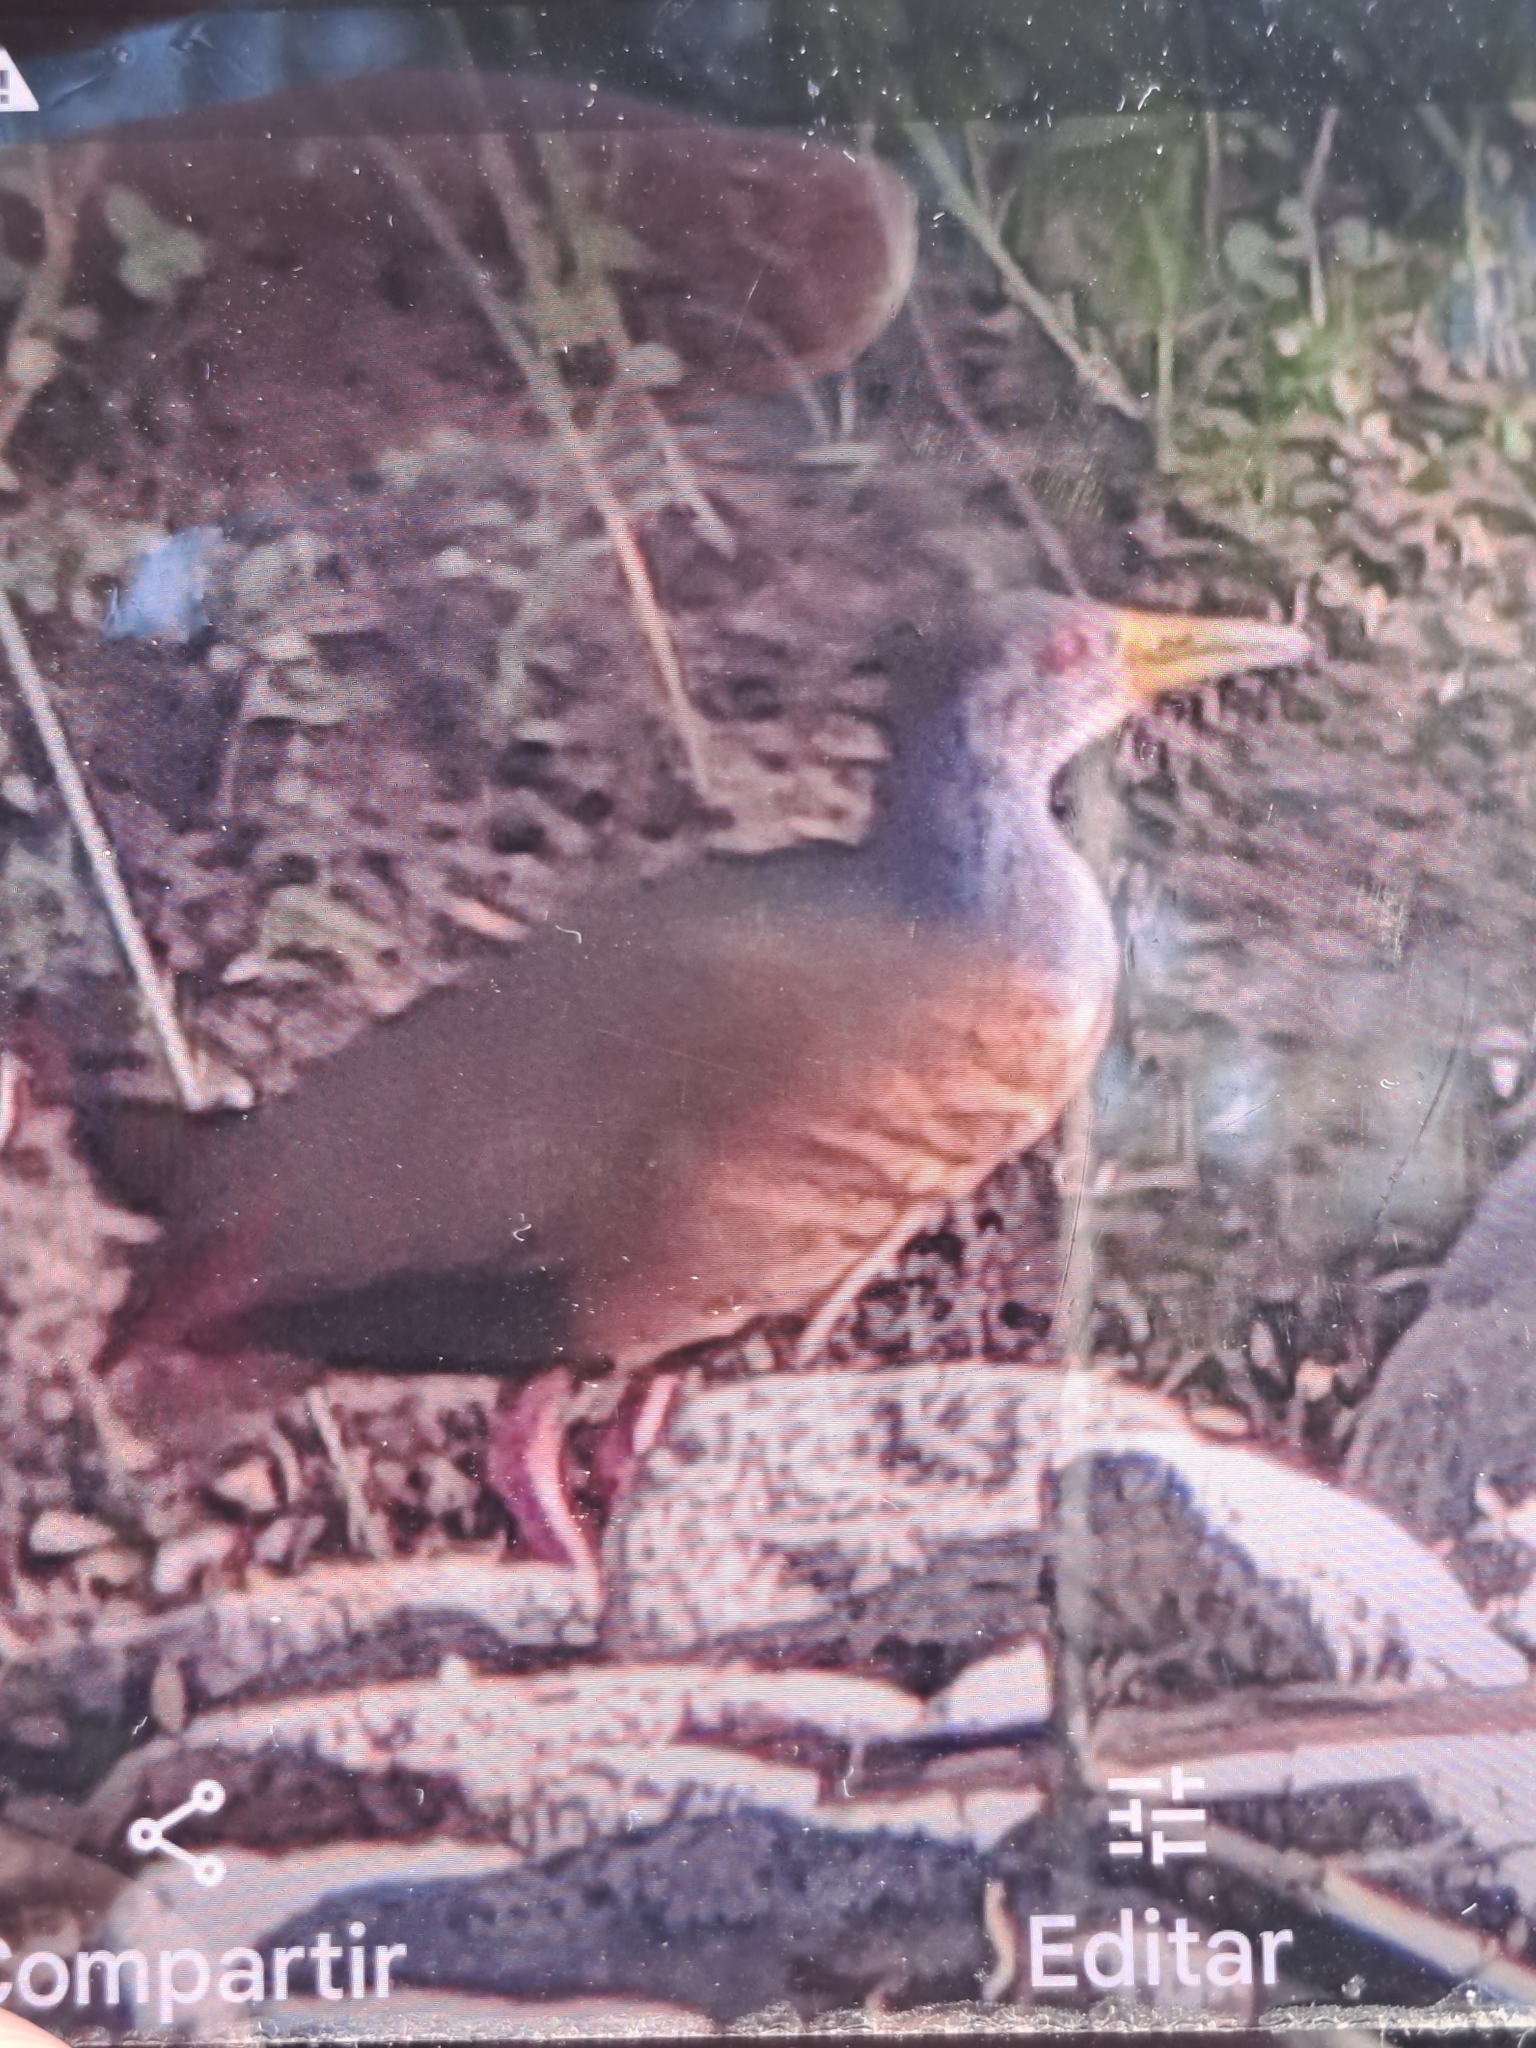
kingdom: Animalia
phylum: Chordata
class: Aves
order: Gruiformes
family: Rallidae
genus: Aramides
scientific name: Aramides cajanea
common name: Gray-necked wood-rail
